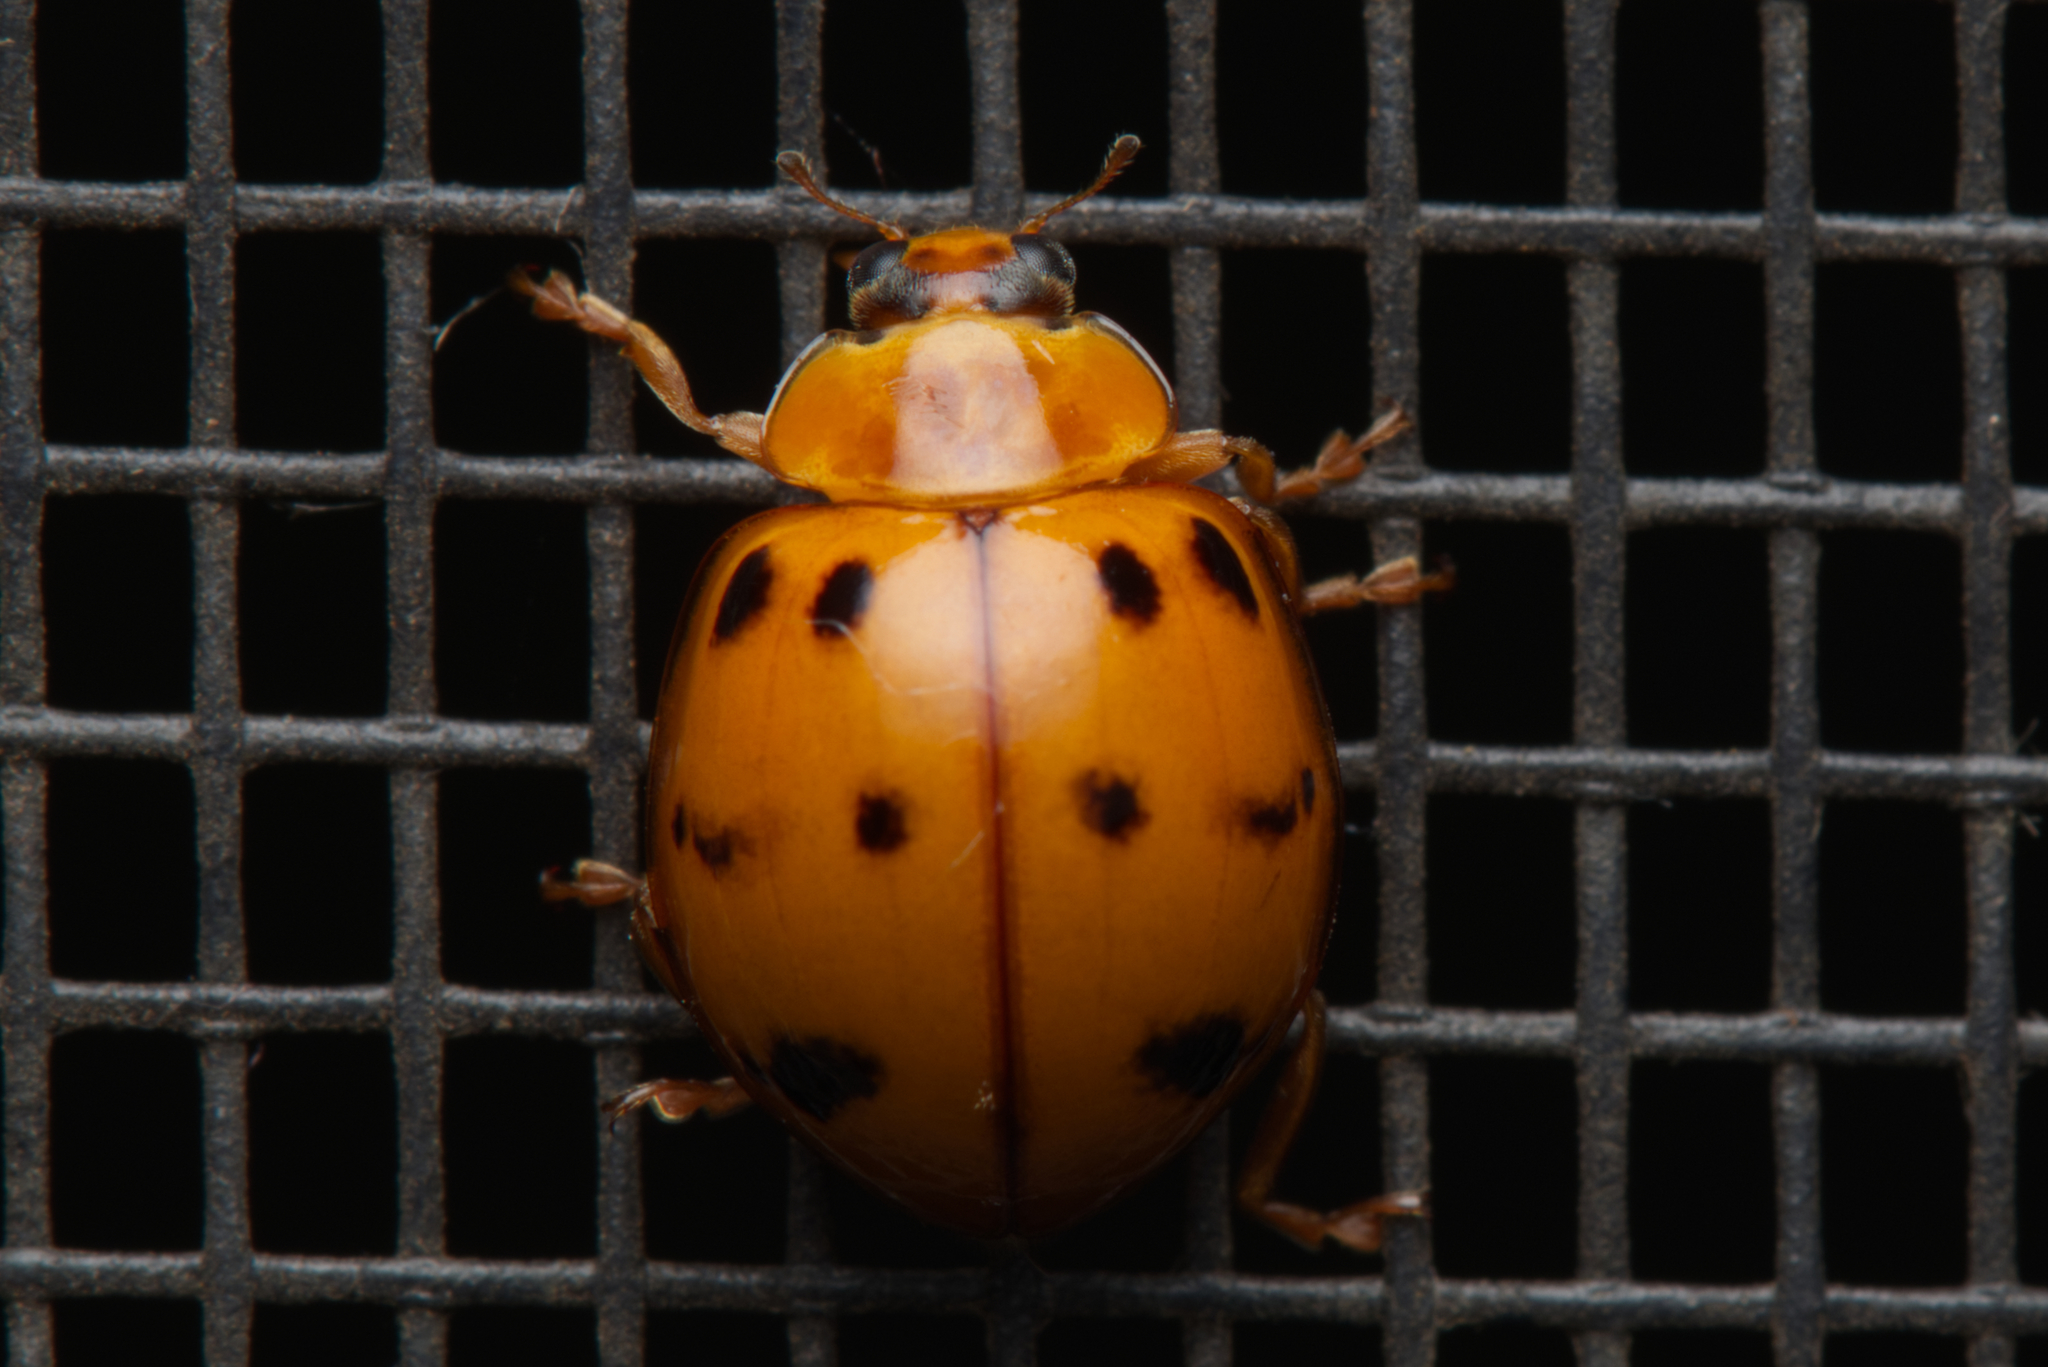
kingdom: Animalia
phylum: Arthropoda
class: Insecta
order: Coleoptera
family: Coccinellidae
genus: Harmonia
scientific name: Harmonia octomaculata
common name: Lady beetle
